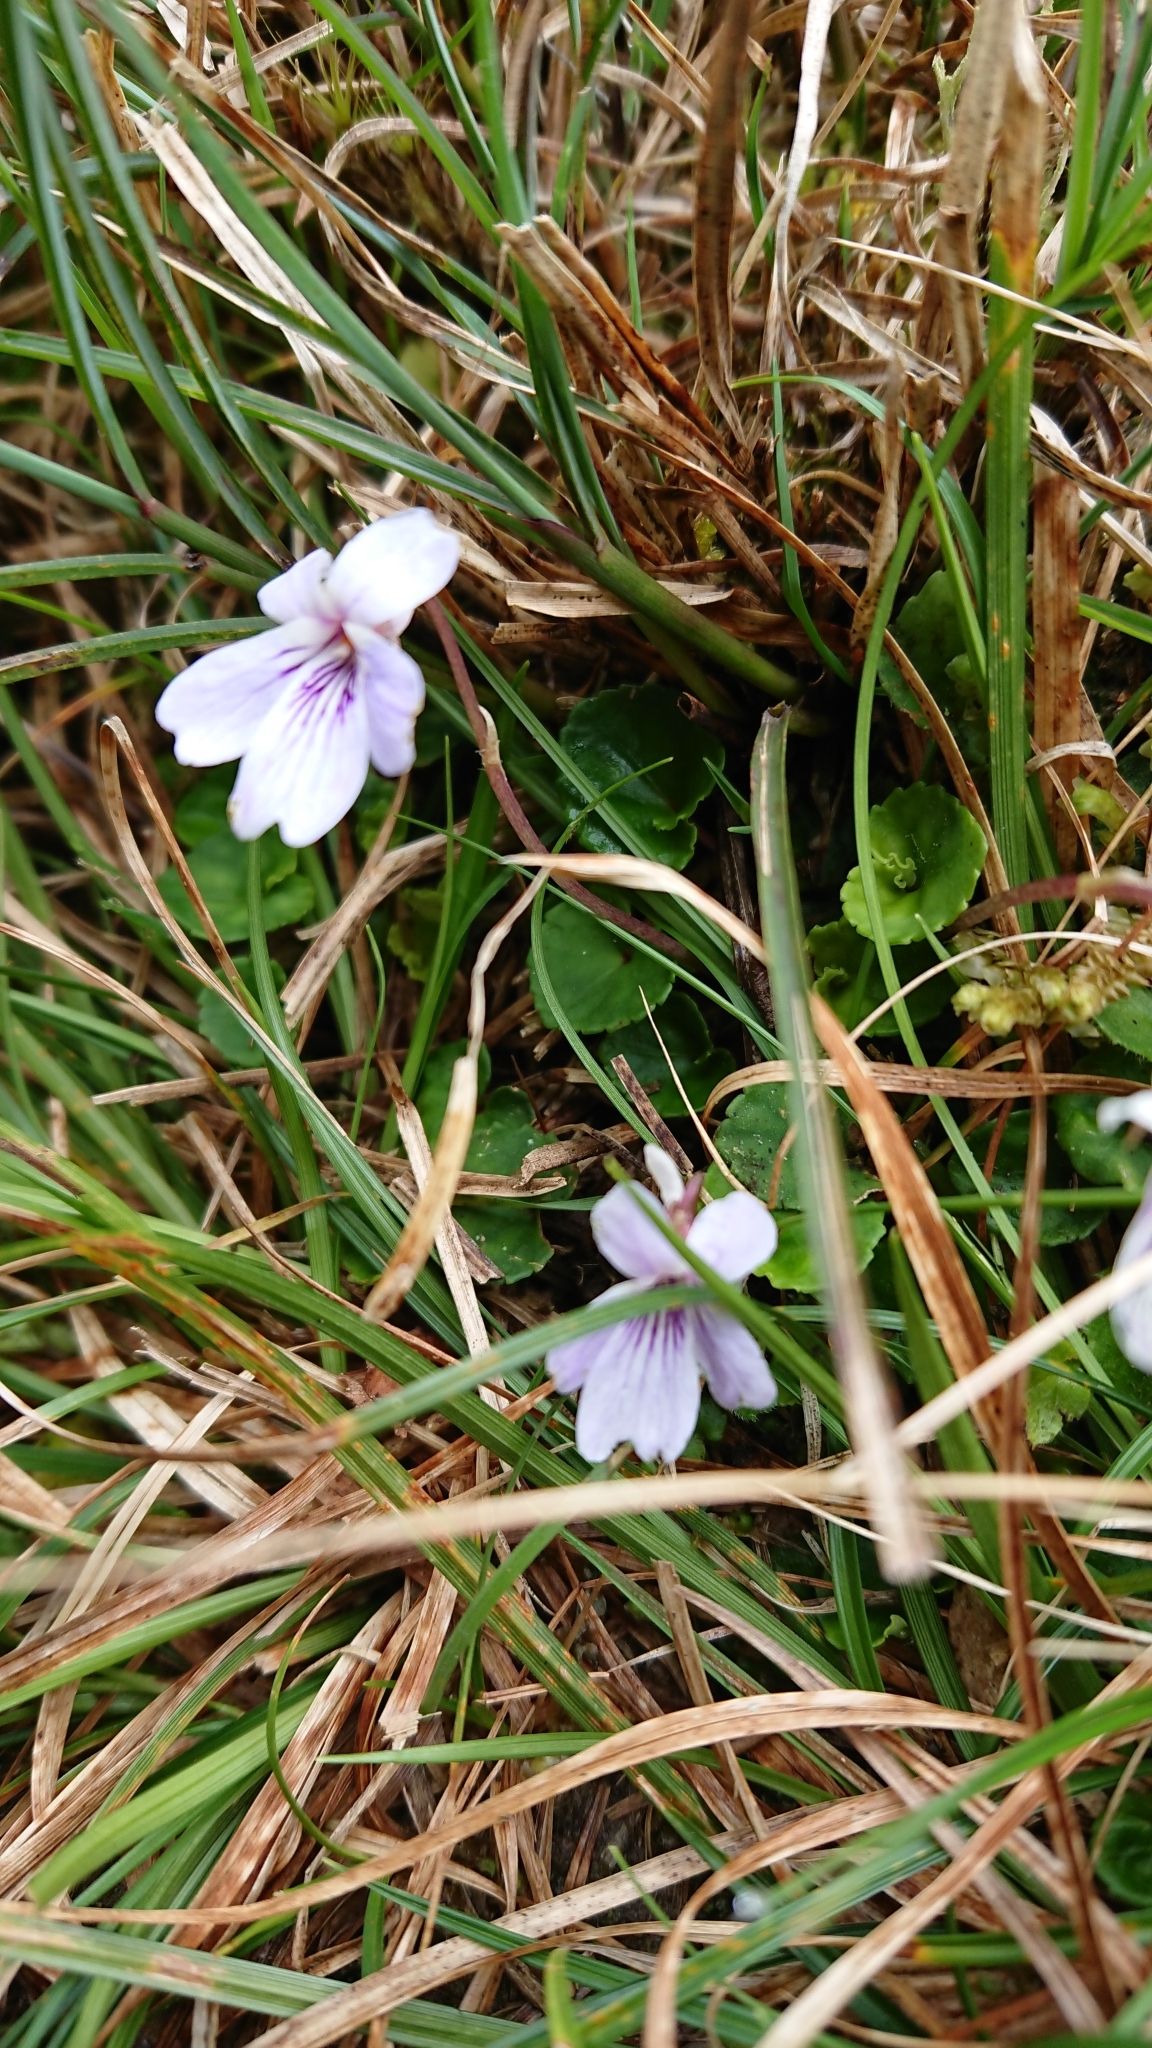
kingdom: Plantae
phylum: Tracheophyta
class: Magnoliopsida
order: Malpighiales
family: Violaceae
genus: Viola
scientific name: Viola formosana
